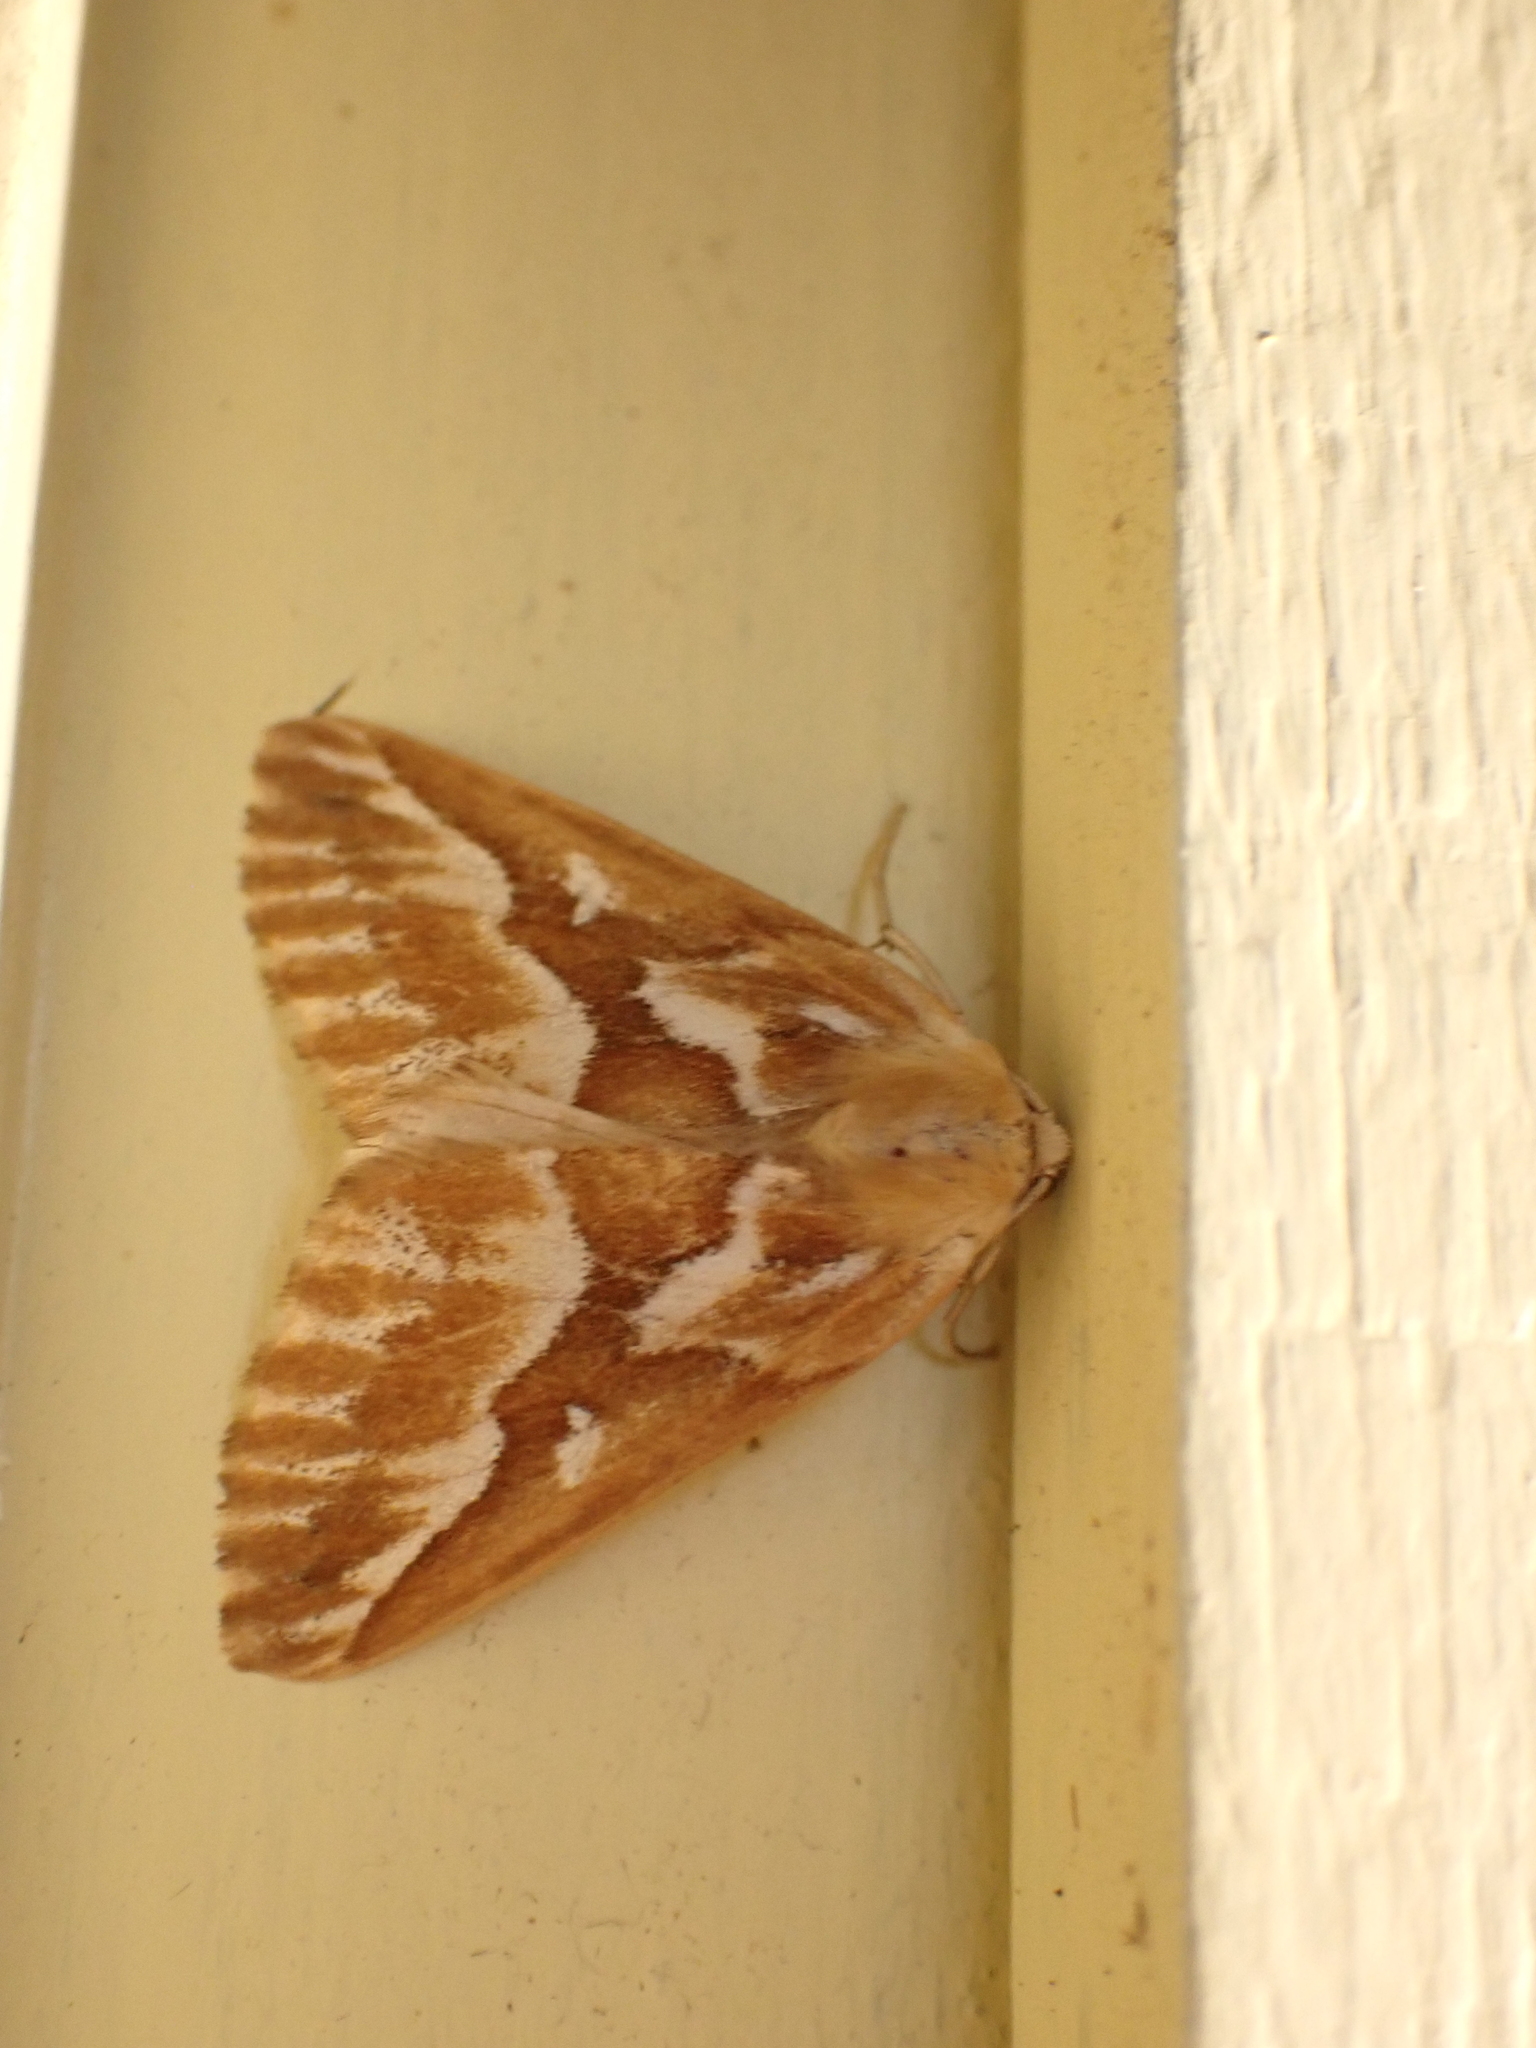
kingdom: Animalia
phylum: Arthropoda
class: Insecta
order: Lepidoptera
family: Geometridae
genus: Caripeta
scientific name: Caripeta piniata
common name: Northern pine looper moth
